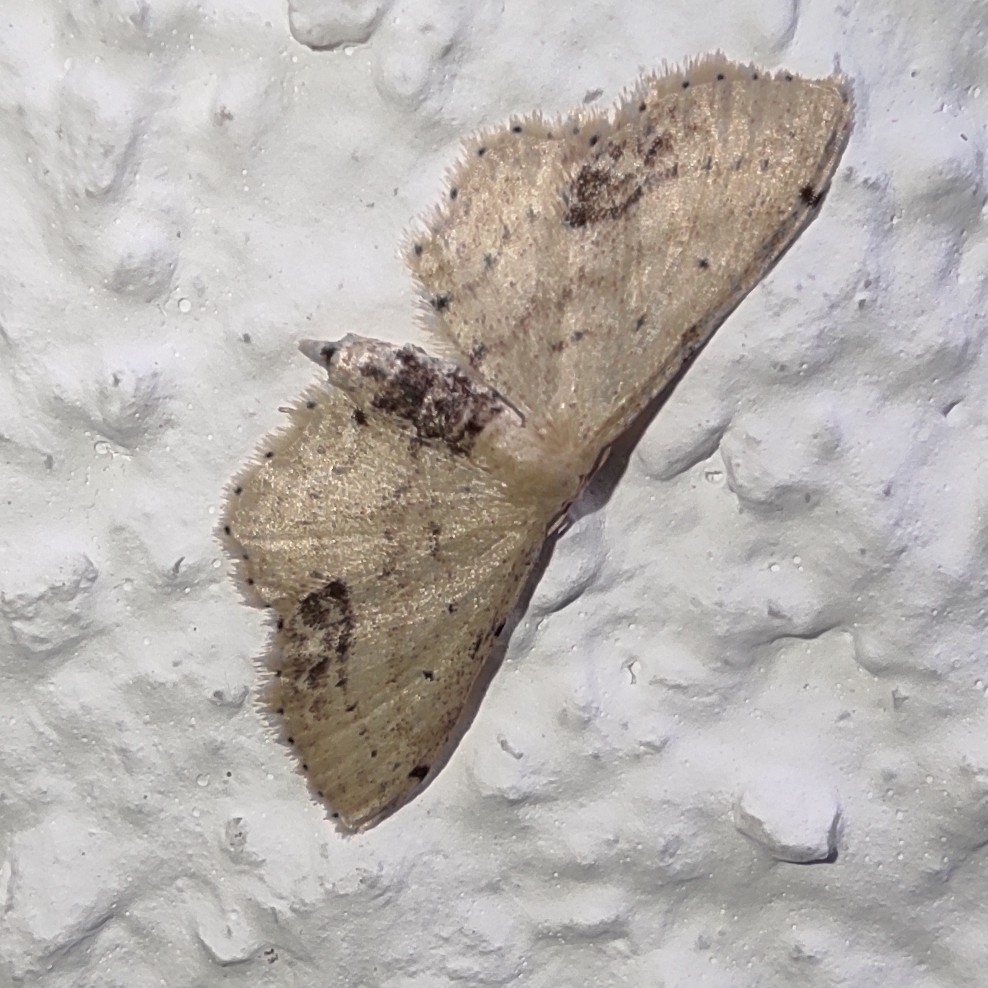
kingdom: Animalia
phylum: Arthropoda
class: Insecta
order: Lepidoptera
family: Geometridae
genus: Idaea
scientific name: Idaea dimidiata
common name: Single-dotted wave
